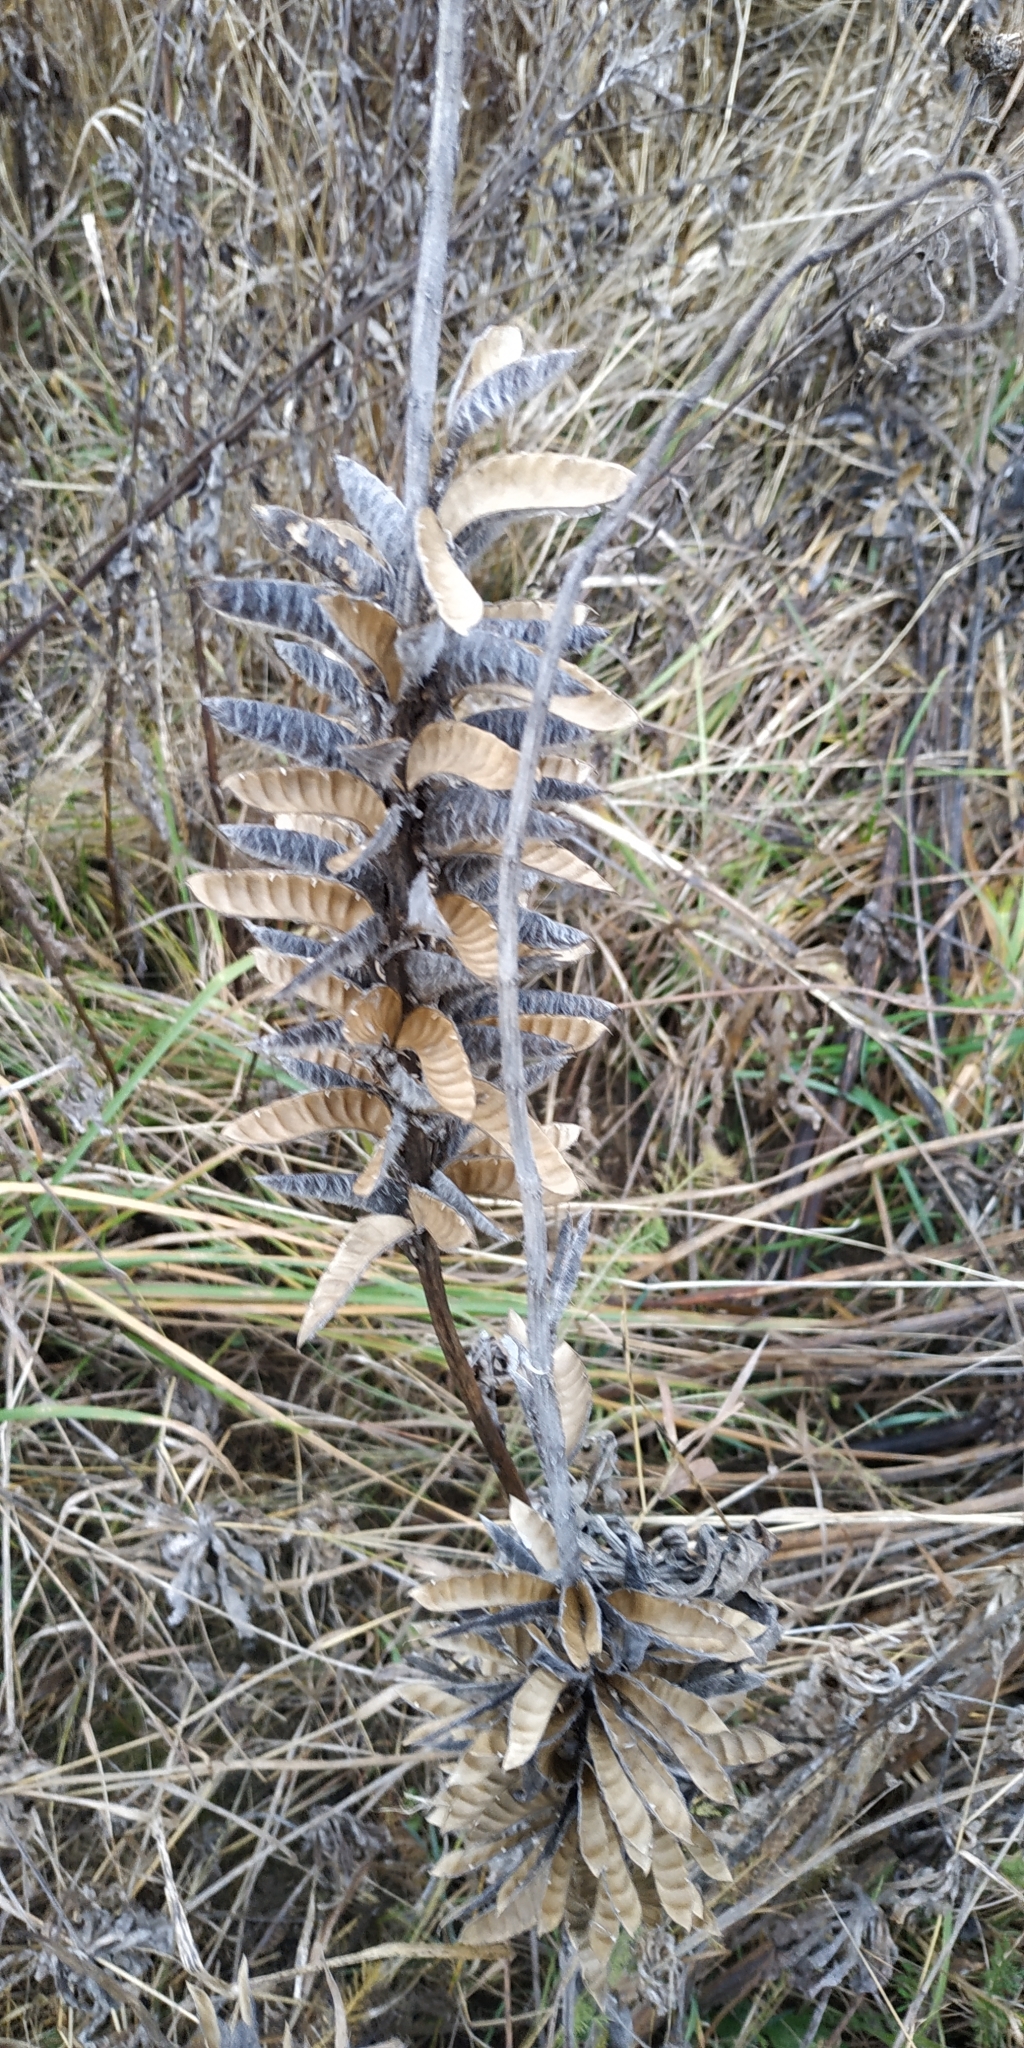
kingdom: Plantae
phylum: Tracheophyta
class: Magnoliopsida
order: Fabales
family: Fabaceae
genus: Lupinus
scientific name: Lupinus polyphyllus
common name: Garden lupin
